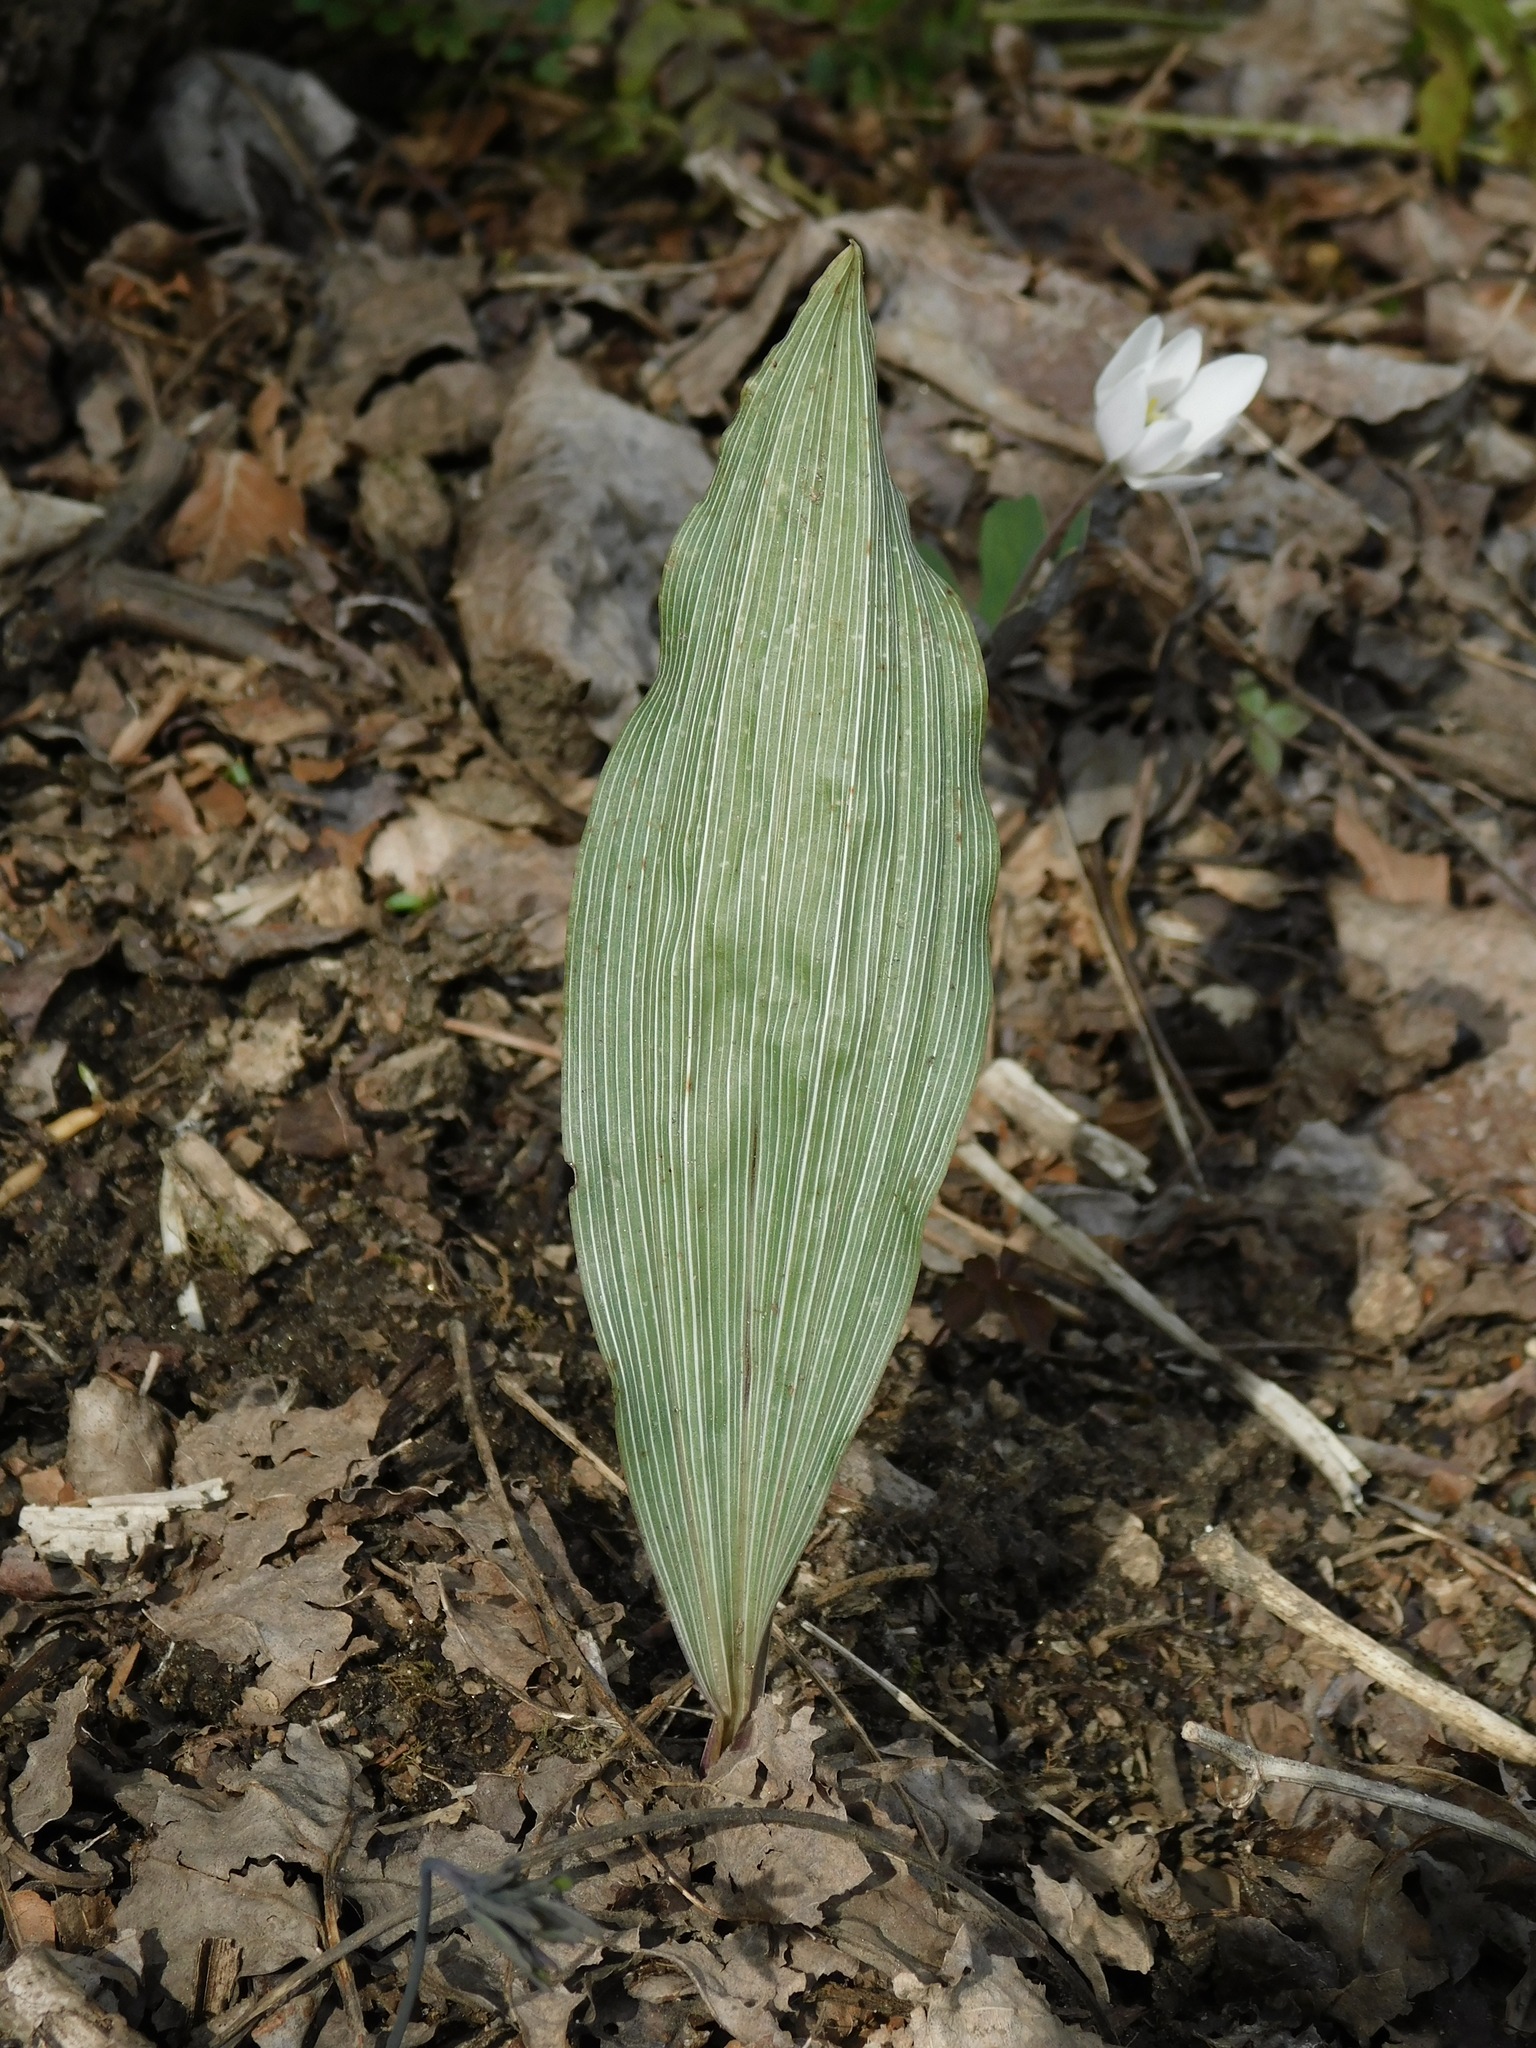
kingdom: Plantae
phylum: Tracheophyta
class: Liliopsida
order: Asparagales
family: Orchidaceae
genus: Aplectrum
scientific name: Aplectrum hyemale
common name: Adam-and-eve
